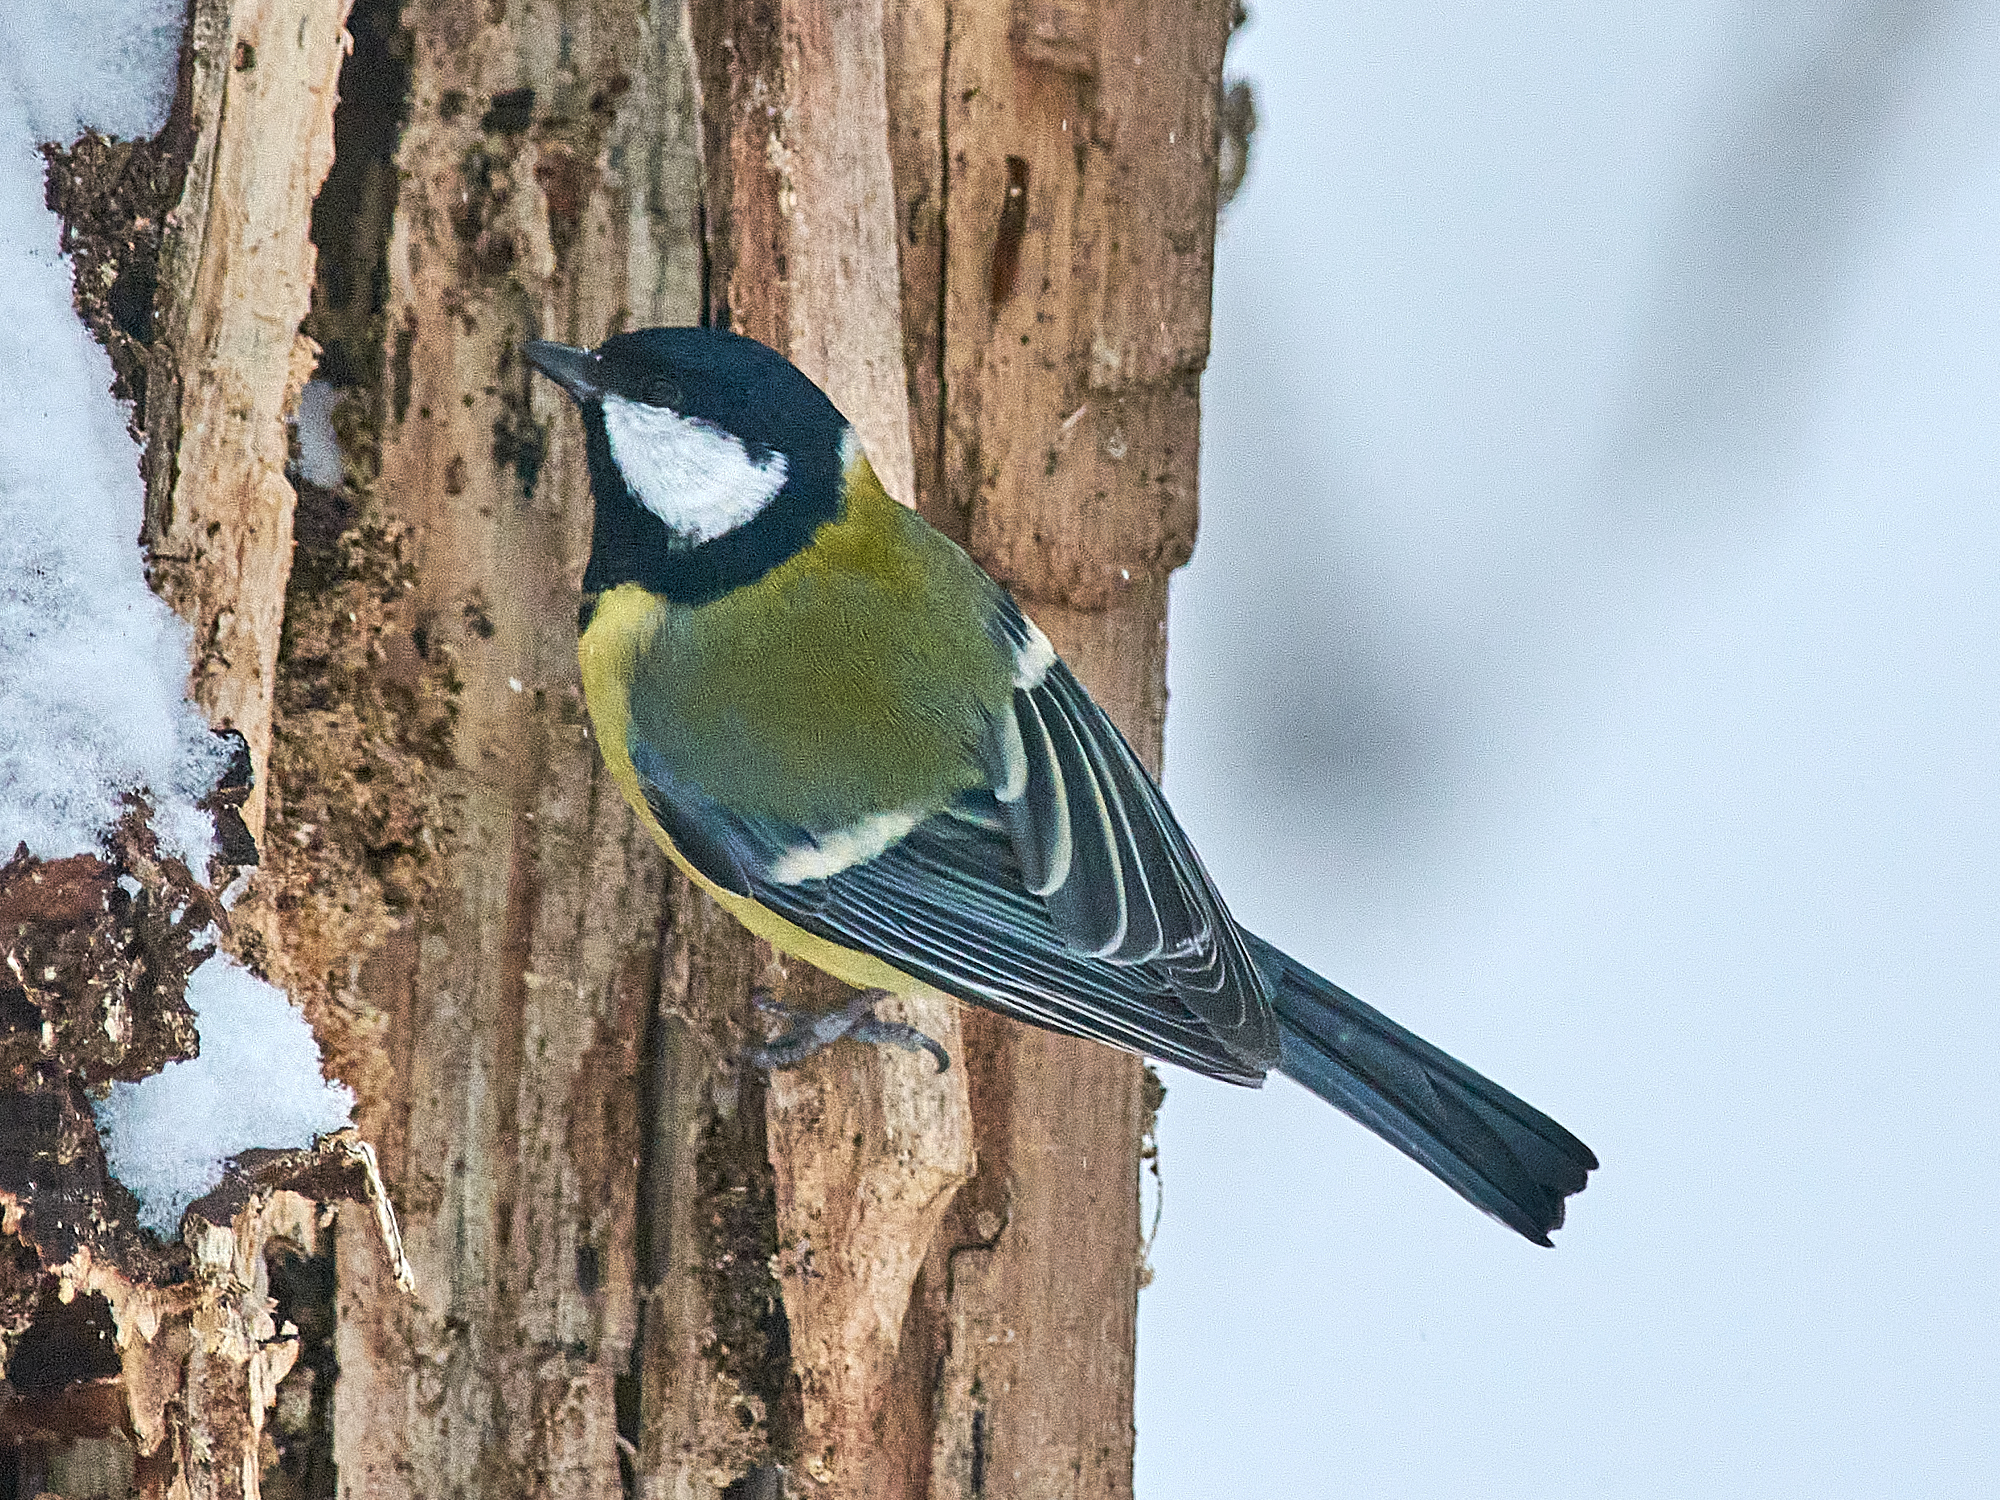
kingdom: Animalia
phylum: Chordata
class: Aves
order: Passeriformes
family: Paridae
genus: Parus
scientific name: Parus major
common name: Great tit
